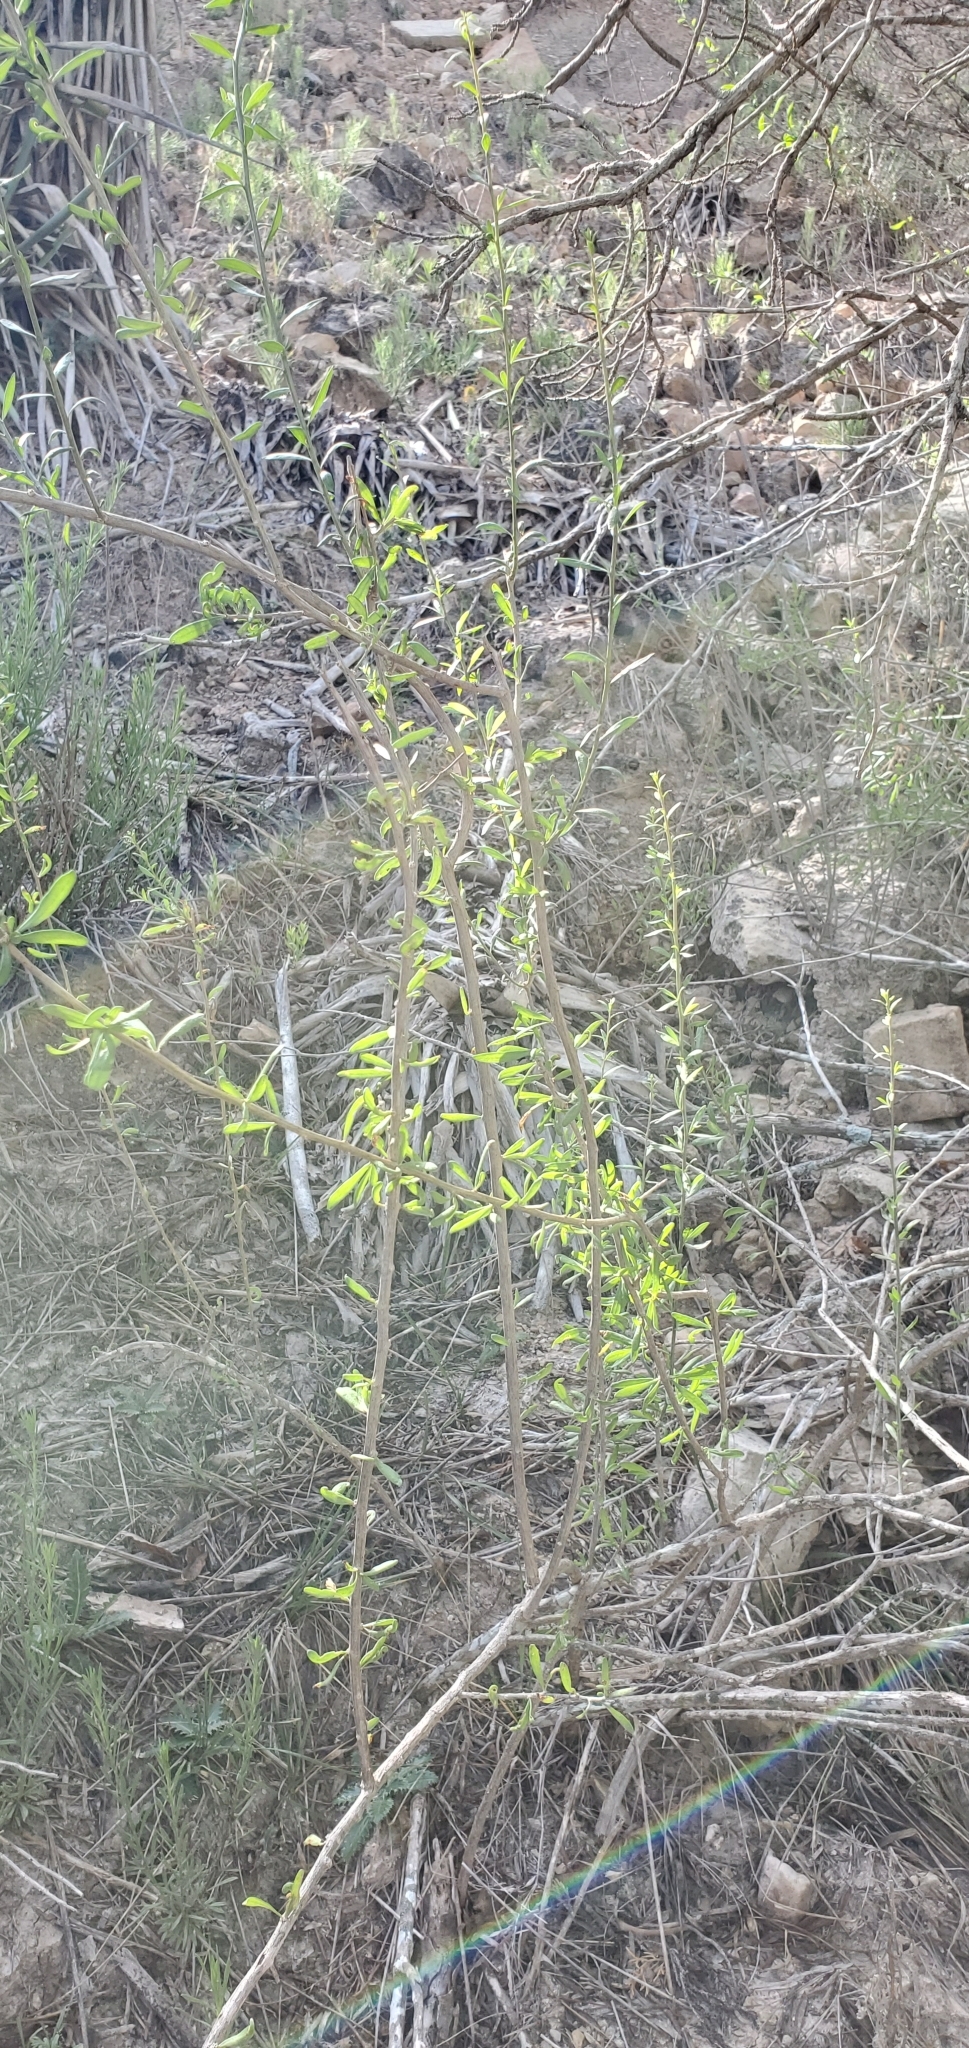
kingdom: Plantae
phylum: Tracheophyta
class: Magnoliopsida
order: Solanales
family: Solanaceae
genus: Lycium
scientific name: Lycium berlandieri
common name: Berlandier wolfberry
